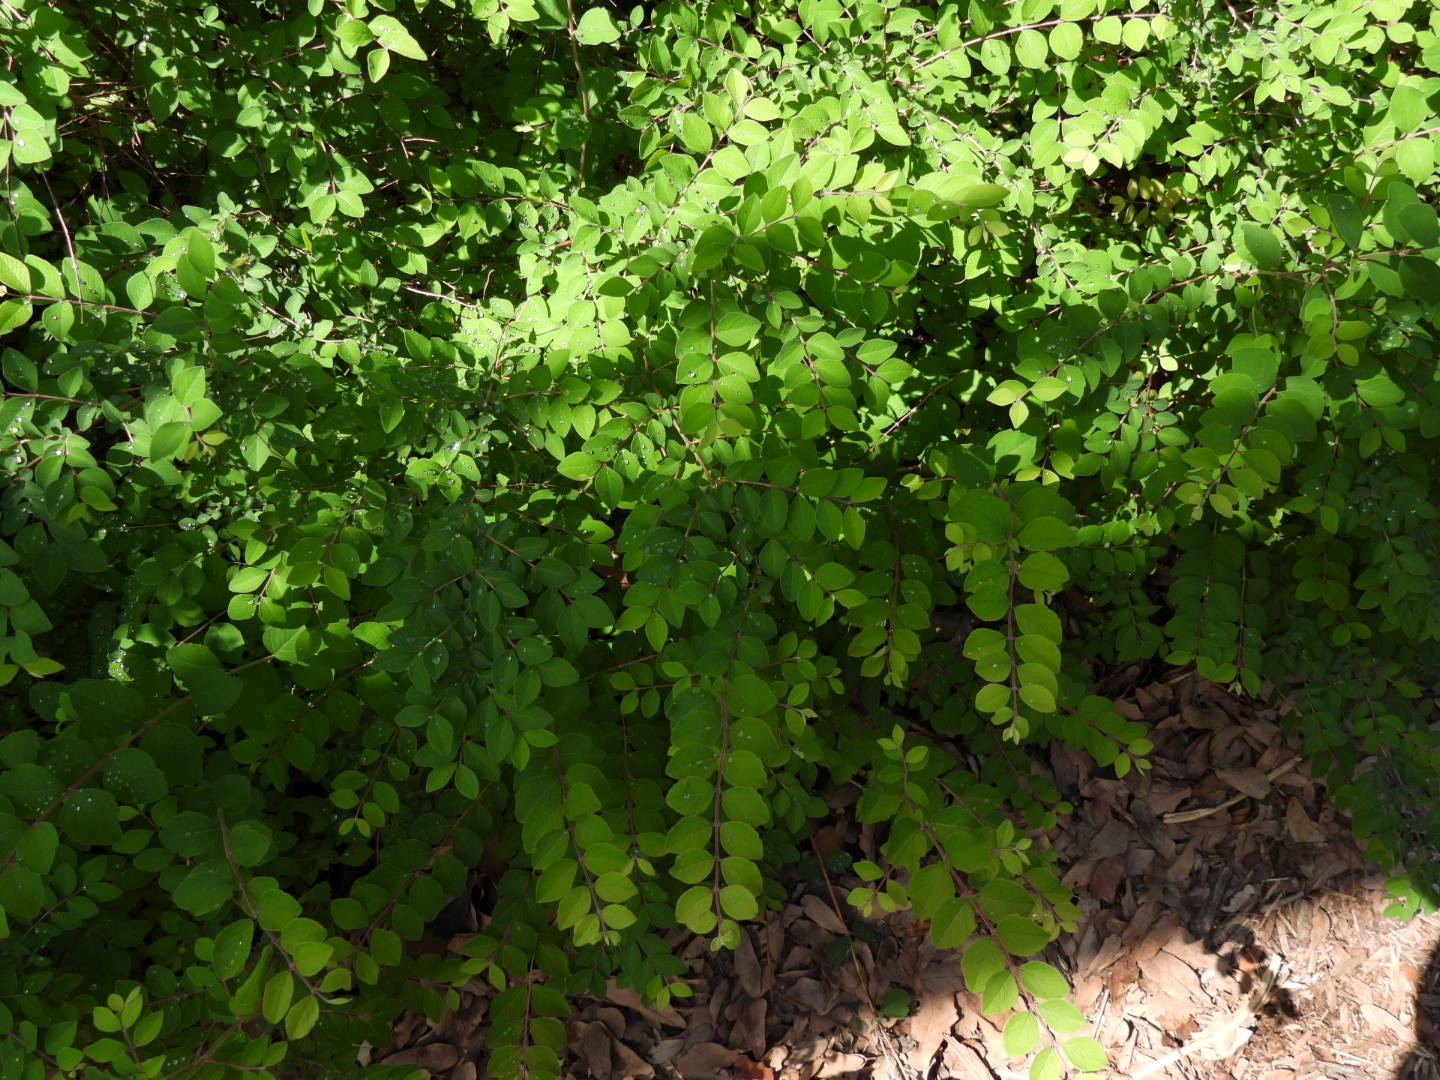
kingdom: Plantae
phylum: Tracheophyta
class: Magnoliopsida
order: Dipsacales
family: Caprifoliaceae
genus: Symphoricarpos
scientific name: Symphoricarpos orbiculatus
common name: Coralberry
